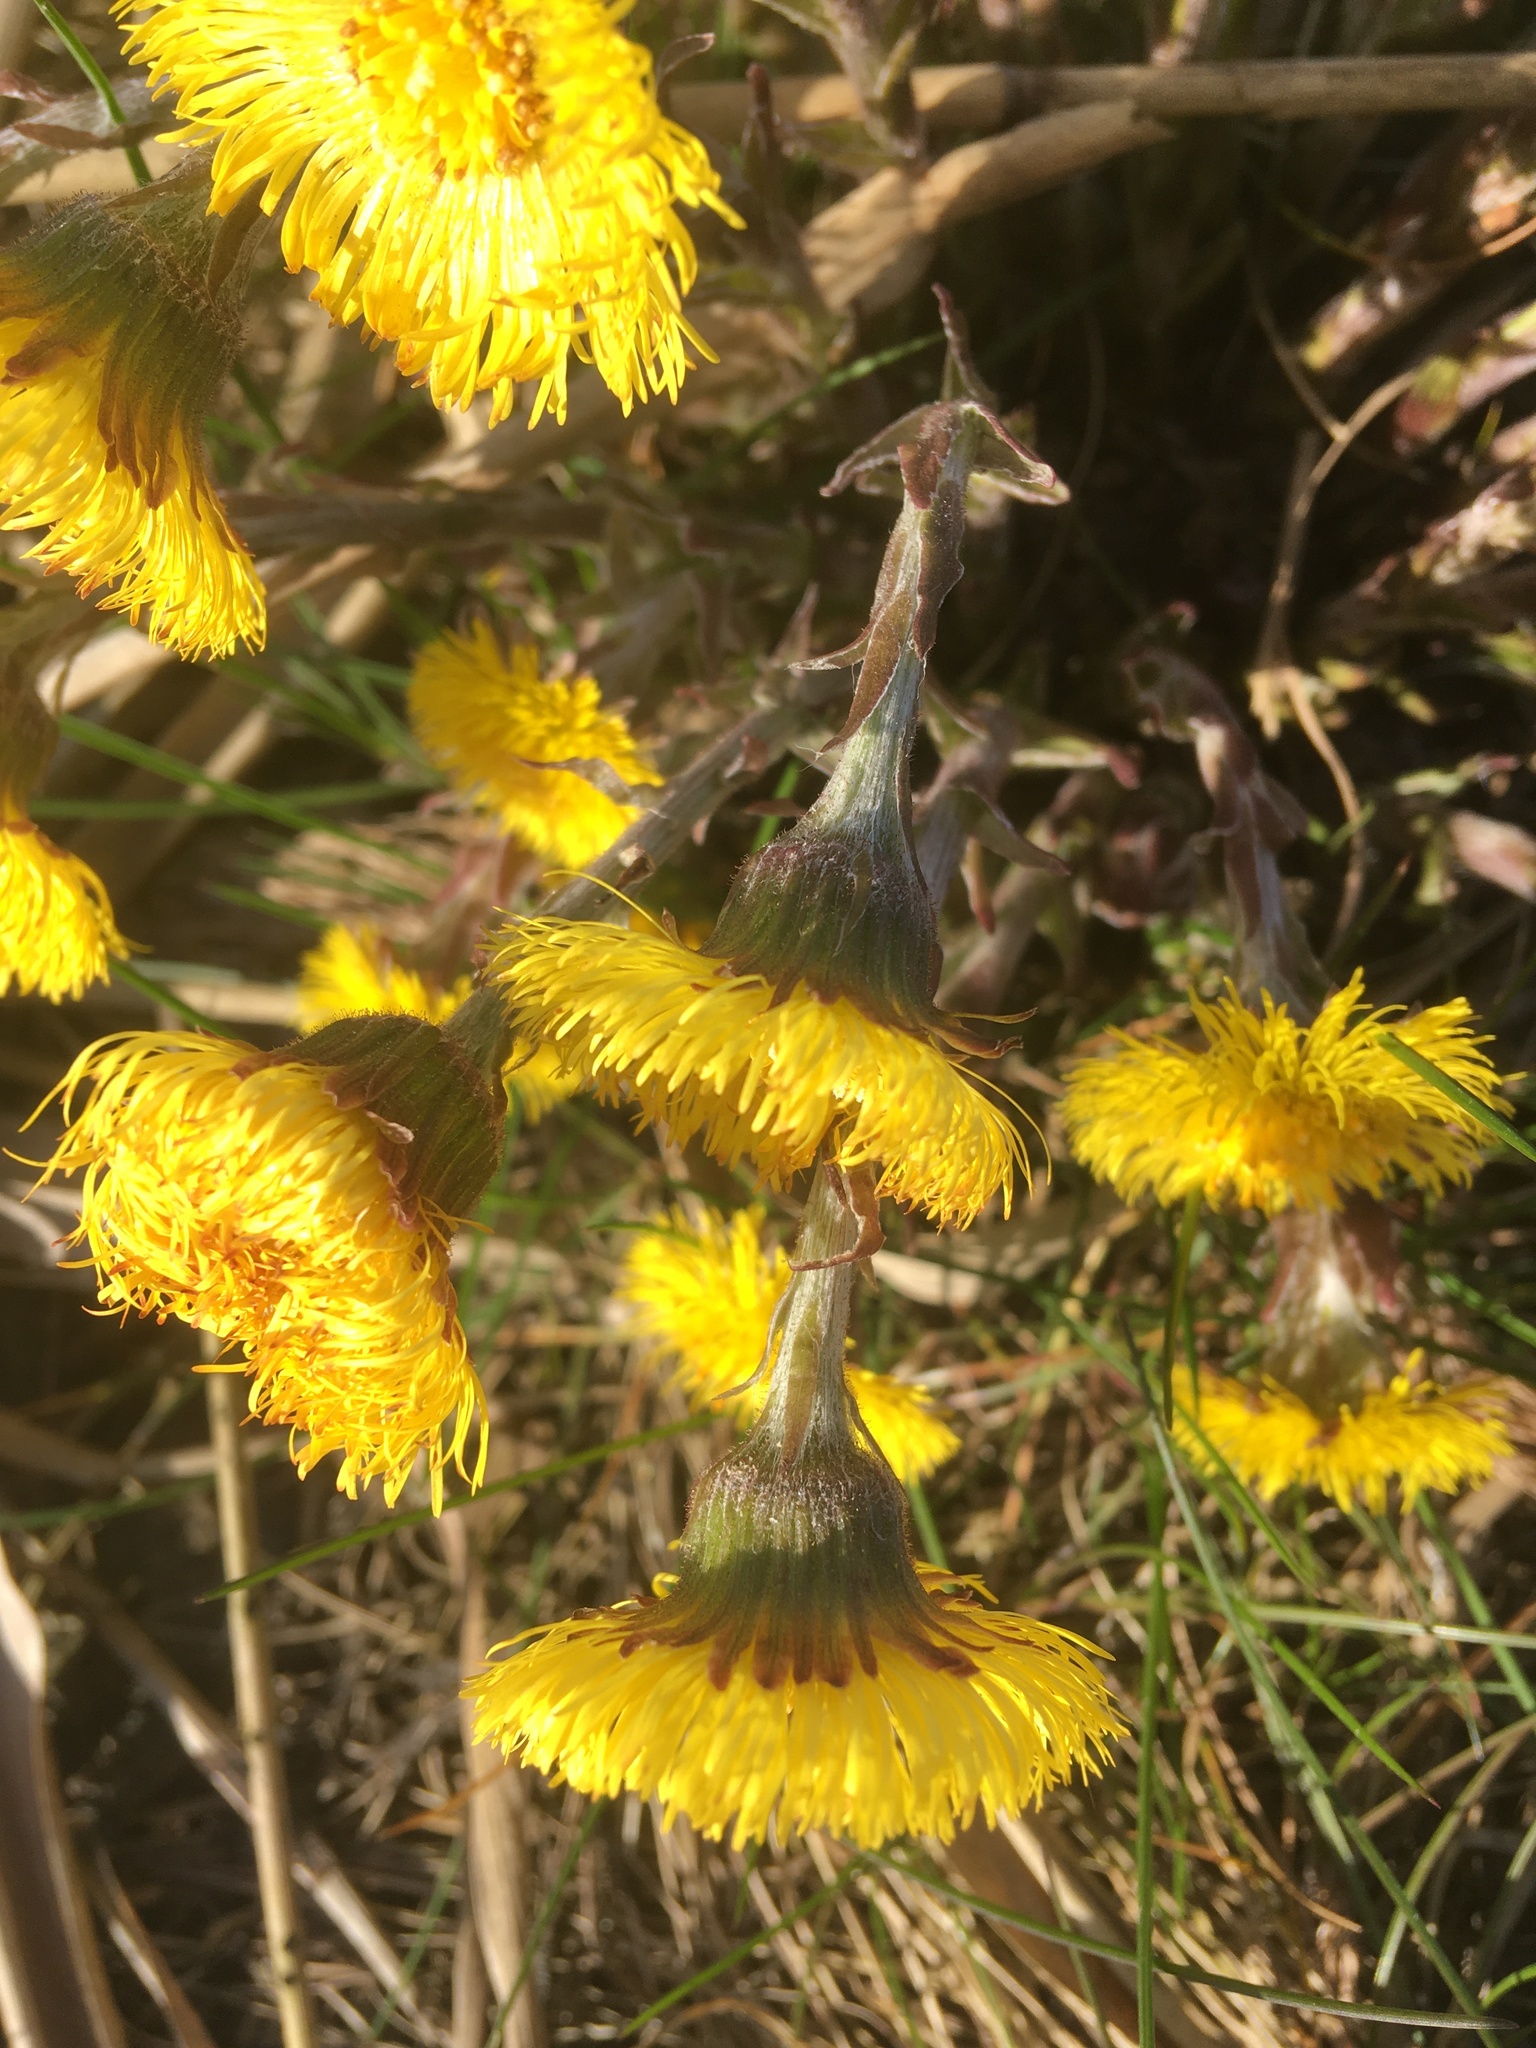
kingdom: Plantae
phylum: Tracheophyta
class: Magnoliopsida
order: Asterales
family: Asteraceae
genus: Tussilago
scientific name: Tussilago farfara
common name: Coltsfoot
